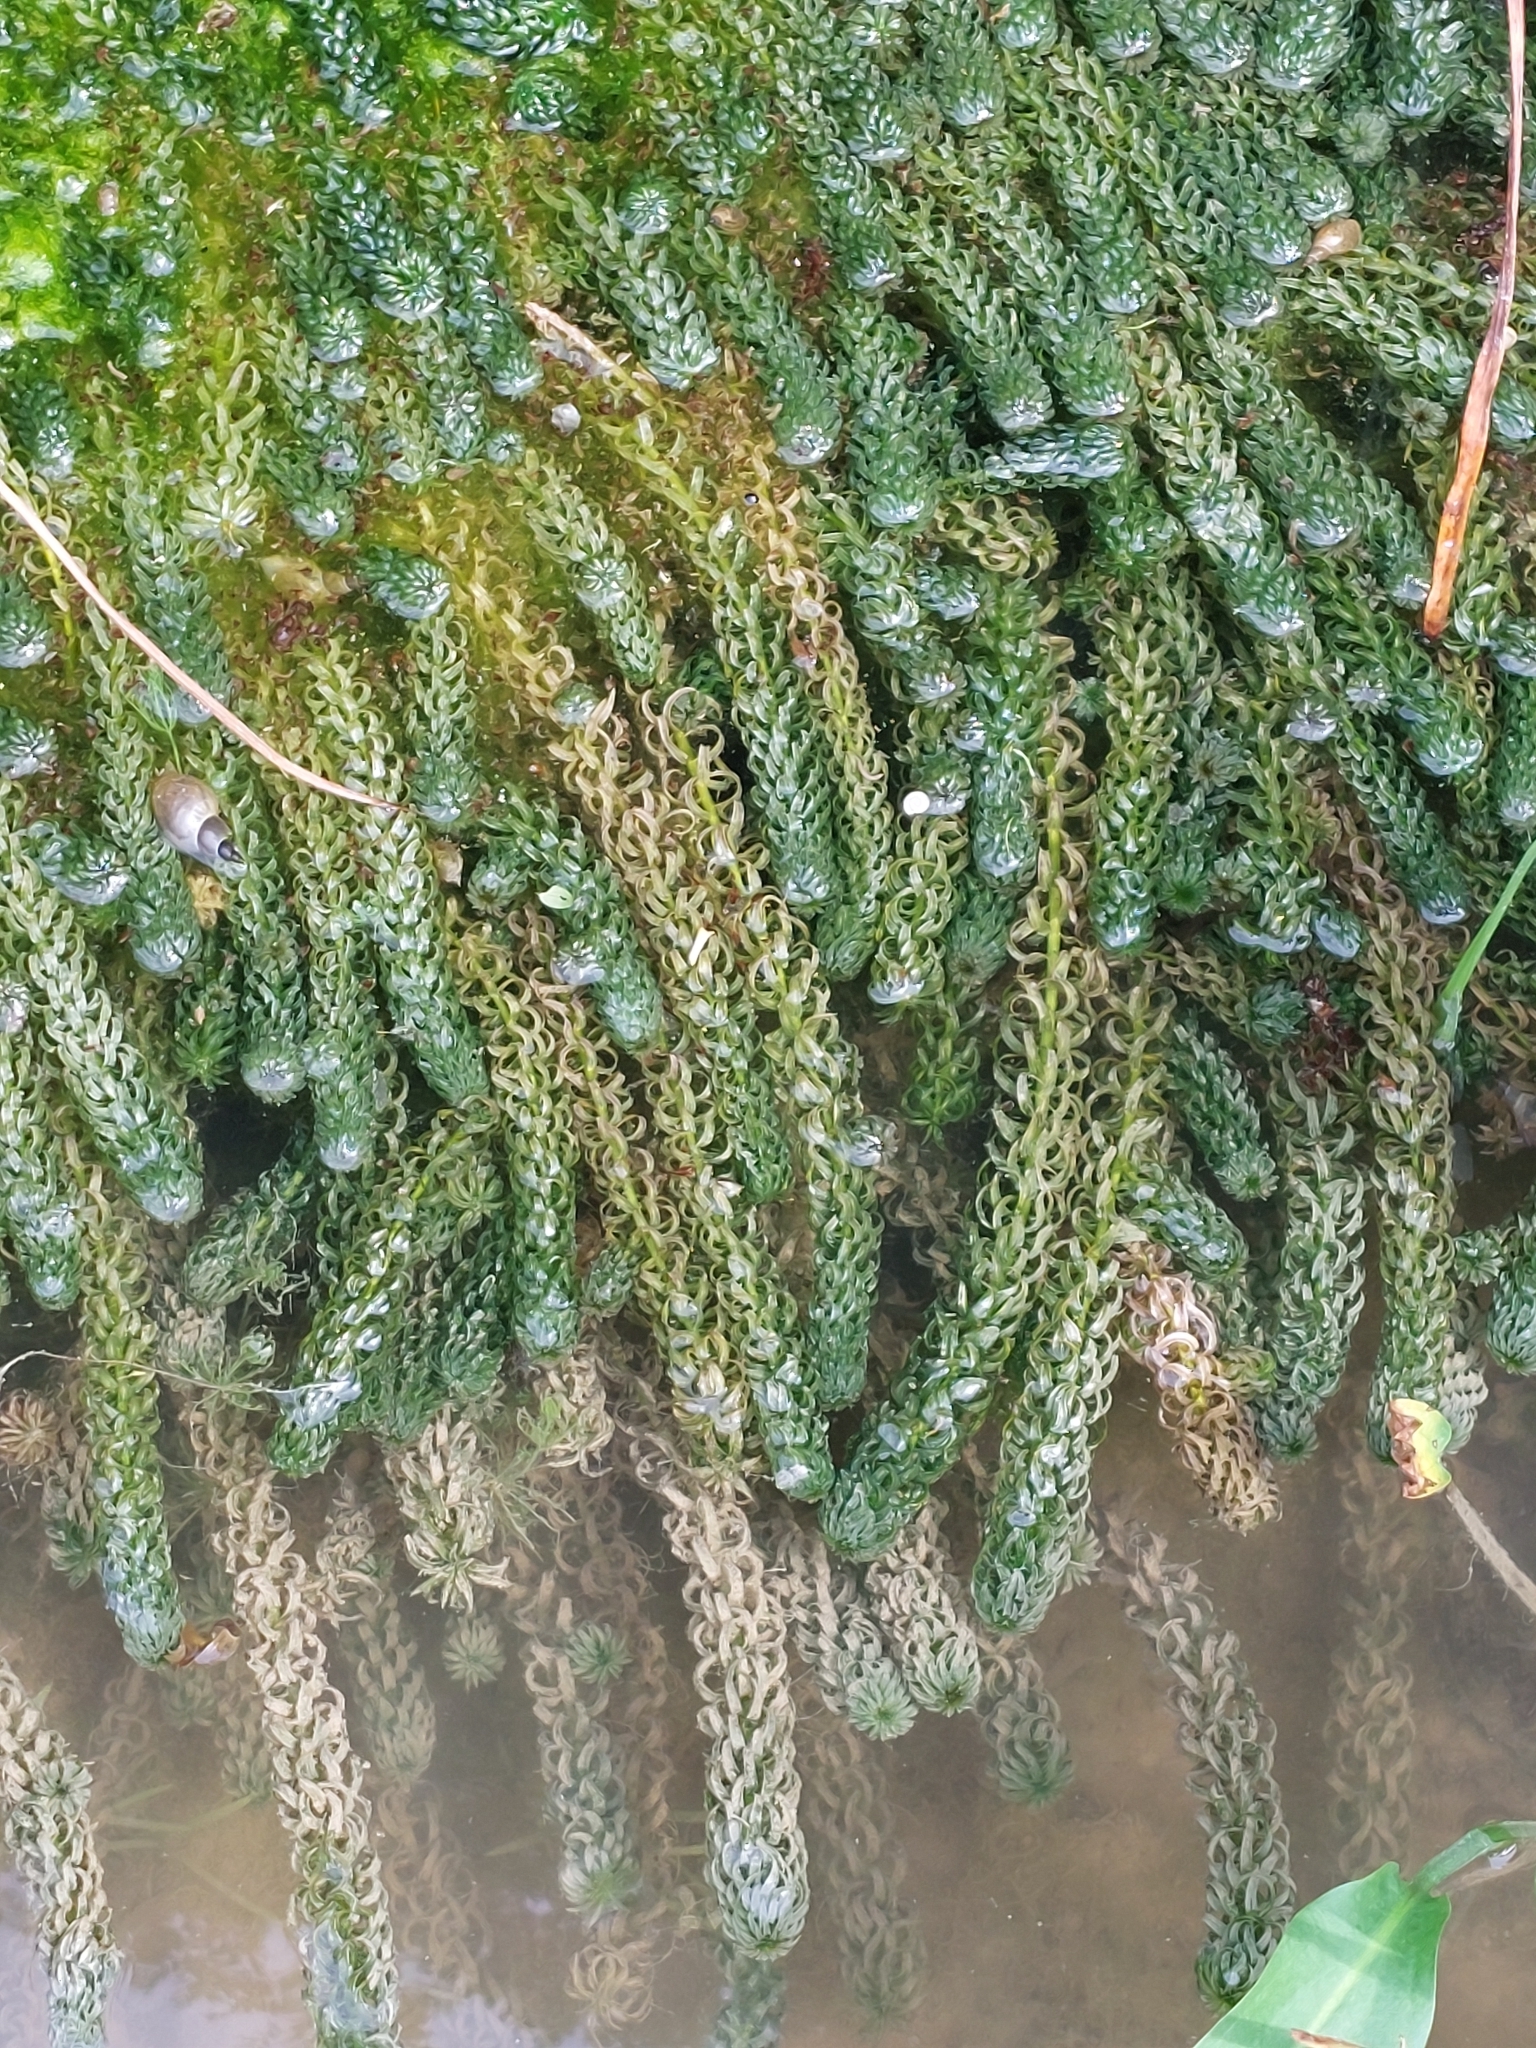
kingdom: Plantae
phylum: Tracheophyta
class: Liliopsida
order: Alismatales
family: Hydrocharitaceae
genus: Lagarosiphon
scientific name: Lagarosiphon major
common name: Curly waterweed
